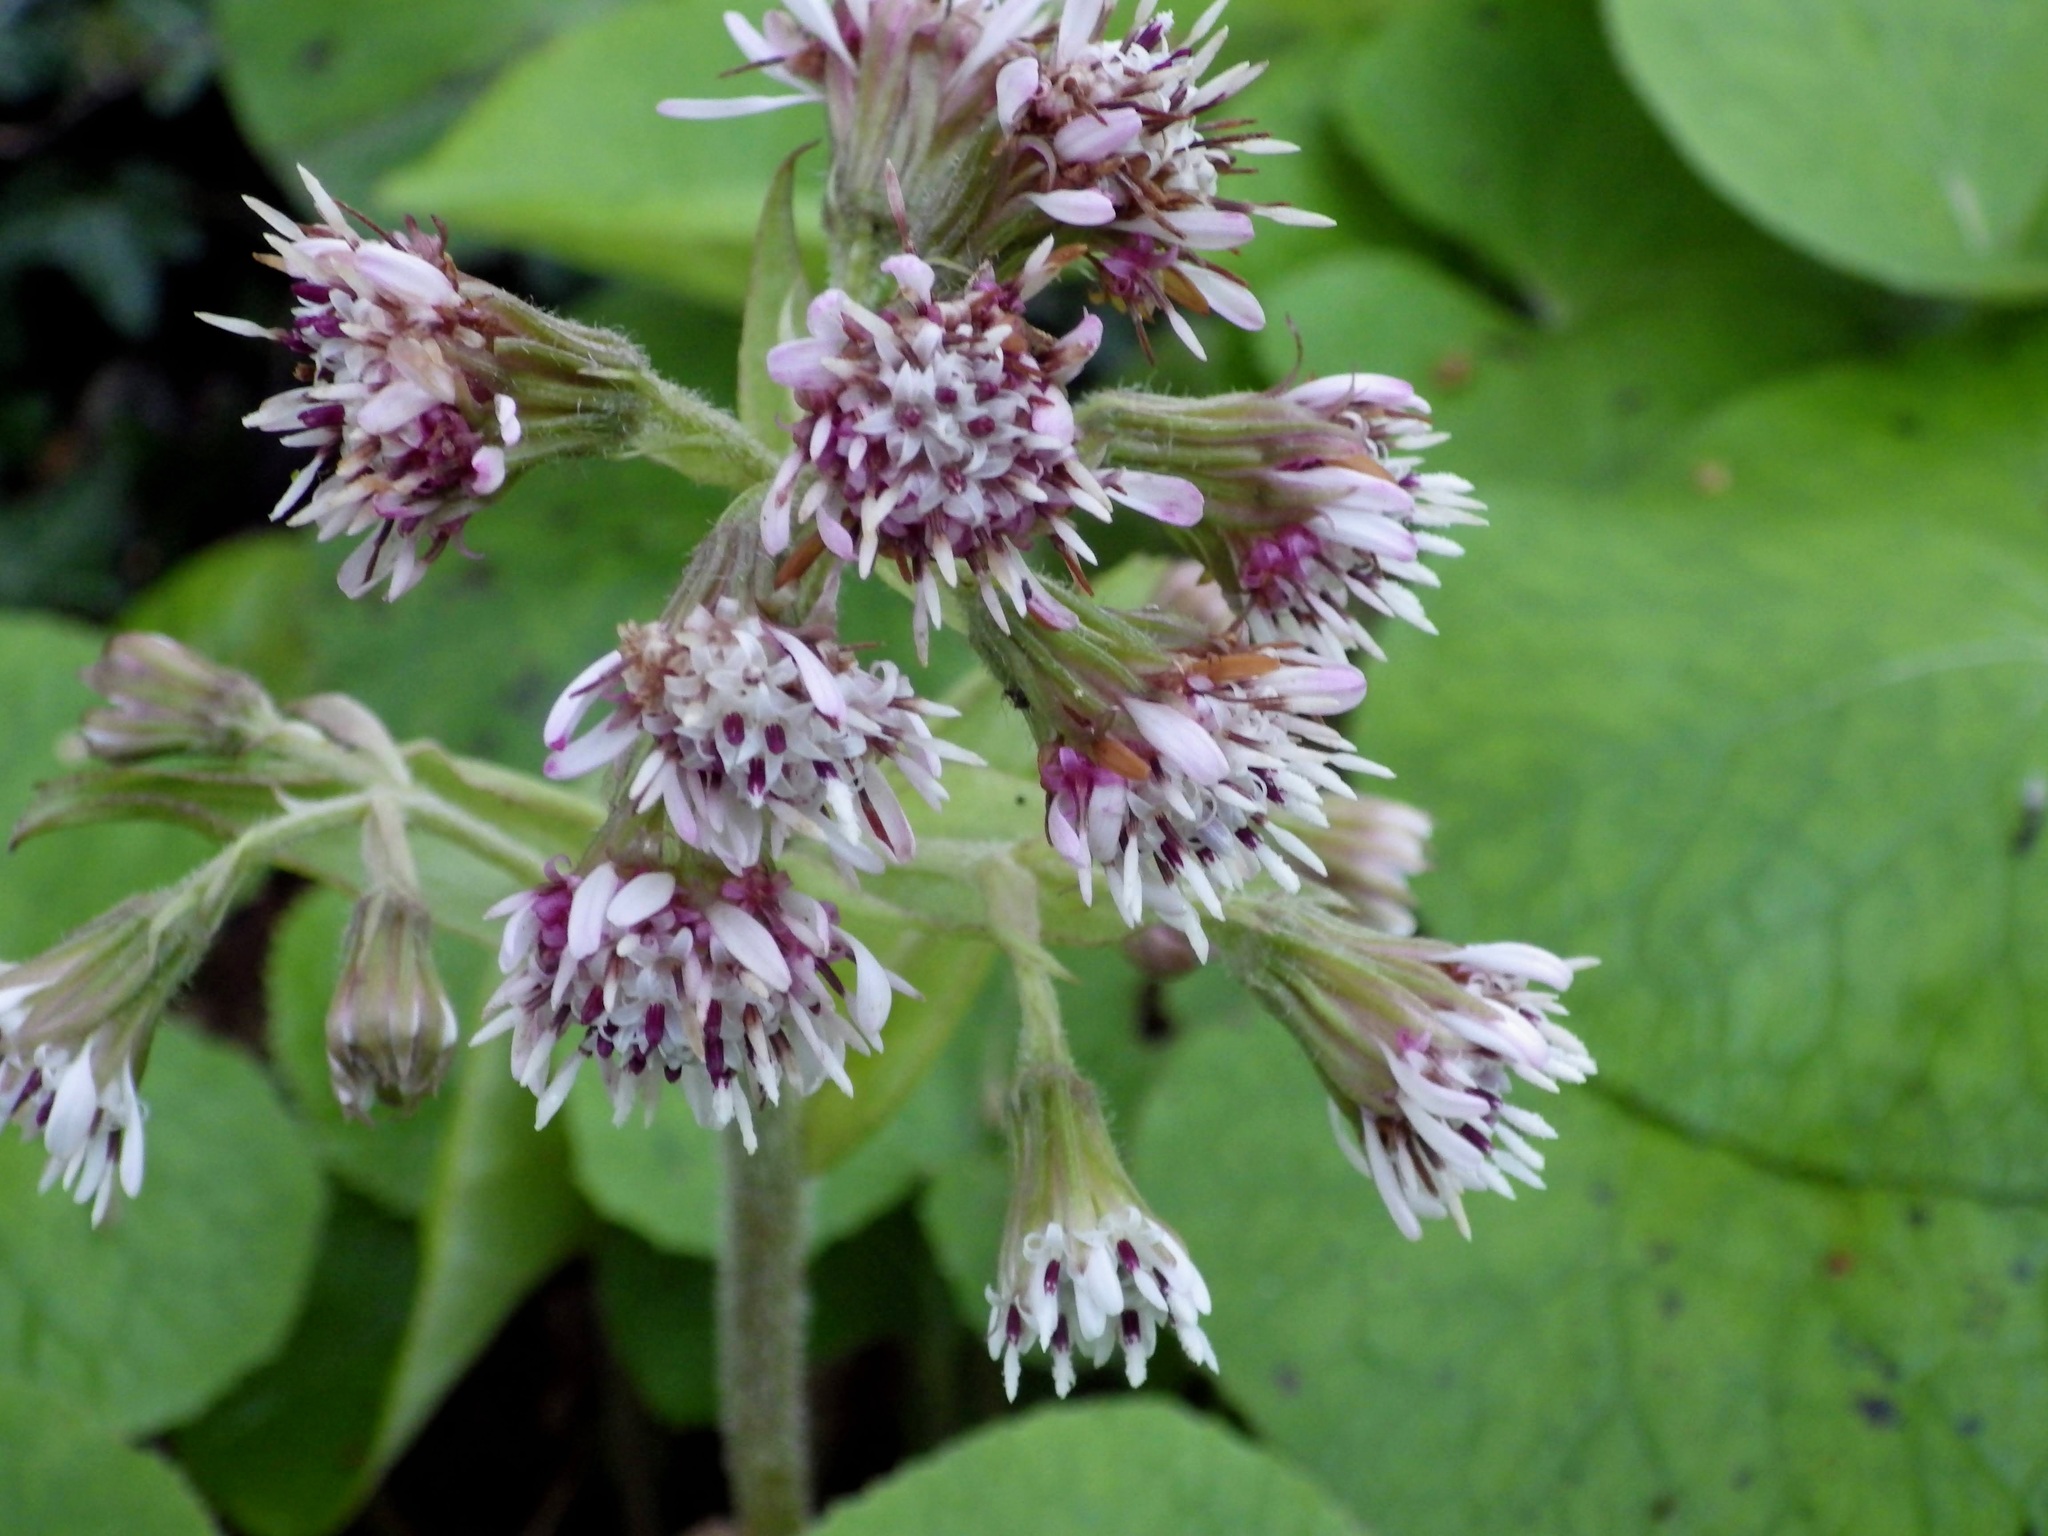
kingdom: Plantae
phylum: Tracheophyta
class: Magnoliopsida
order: Asterales
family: Asteraceae
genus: Petasites
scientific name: Petasites pyrenaicus
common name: Winter heliotrope
